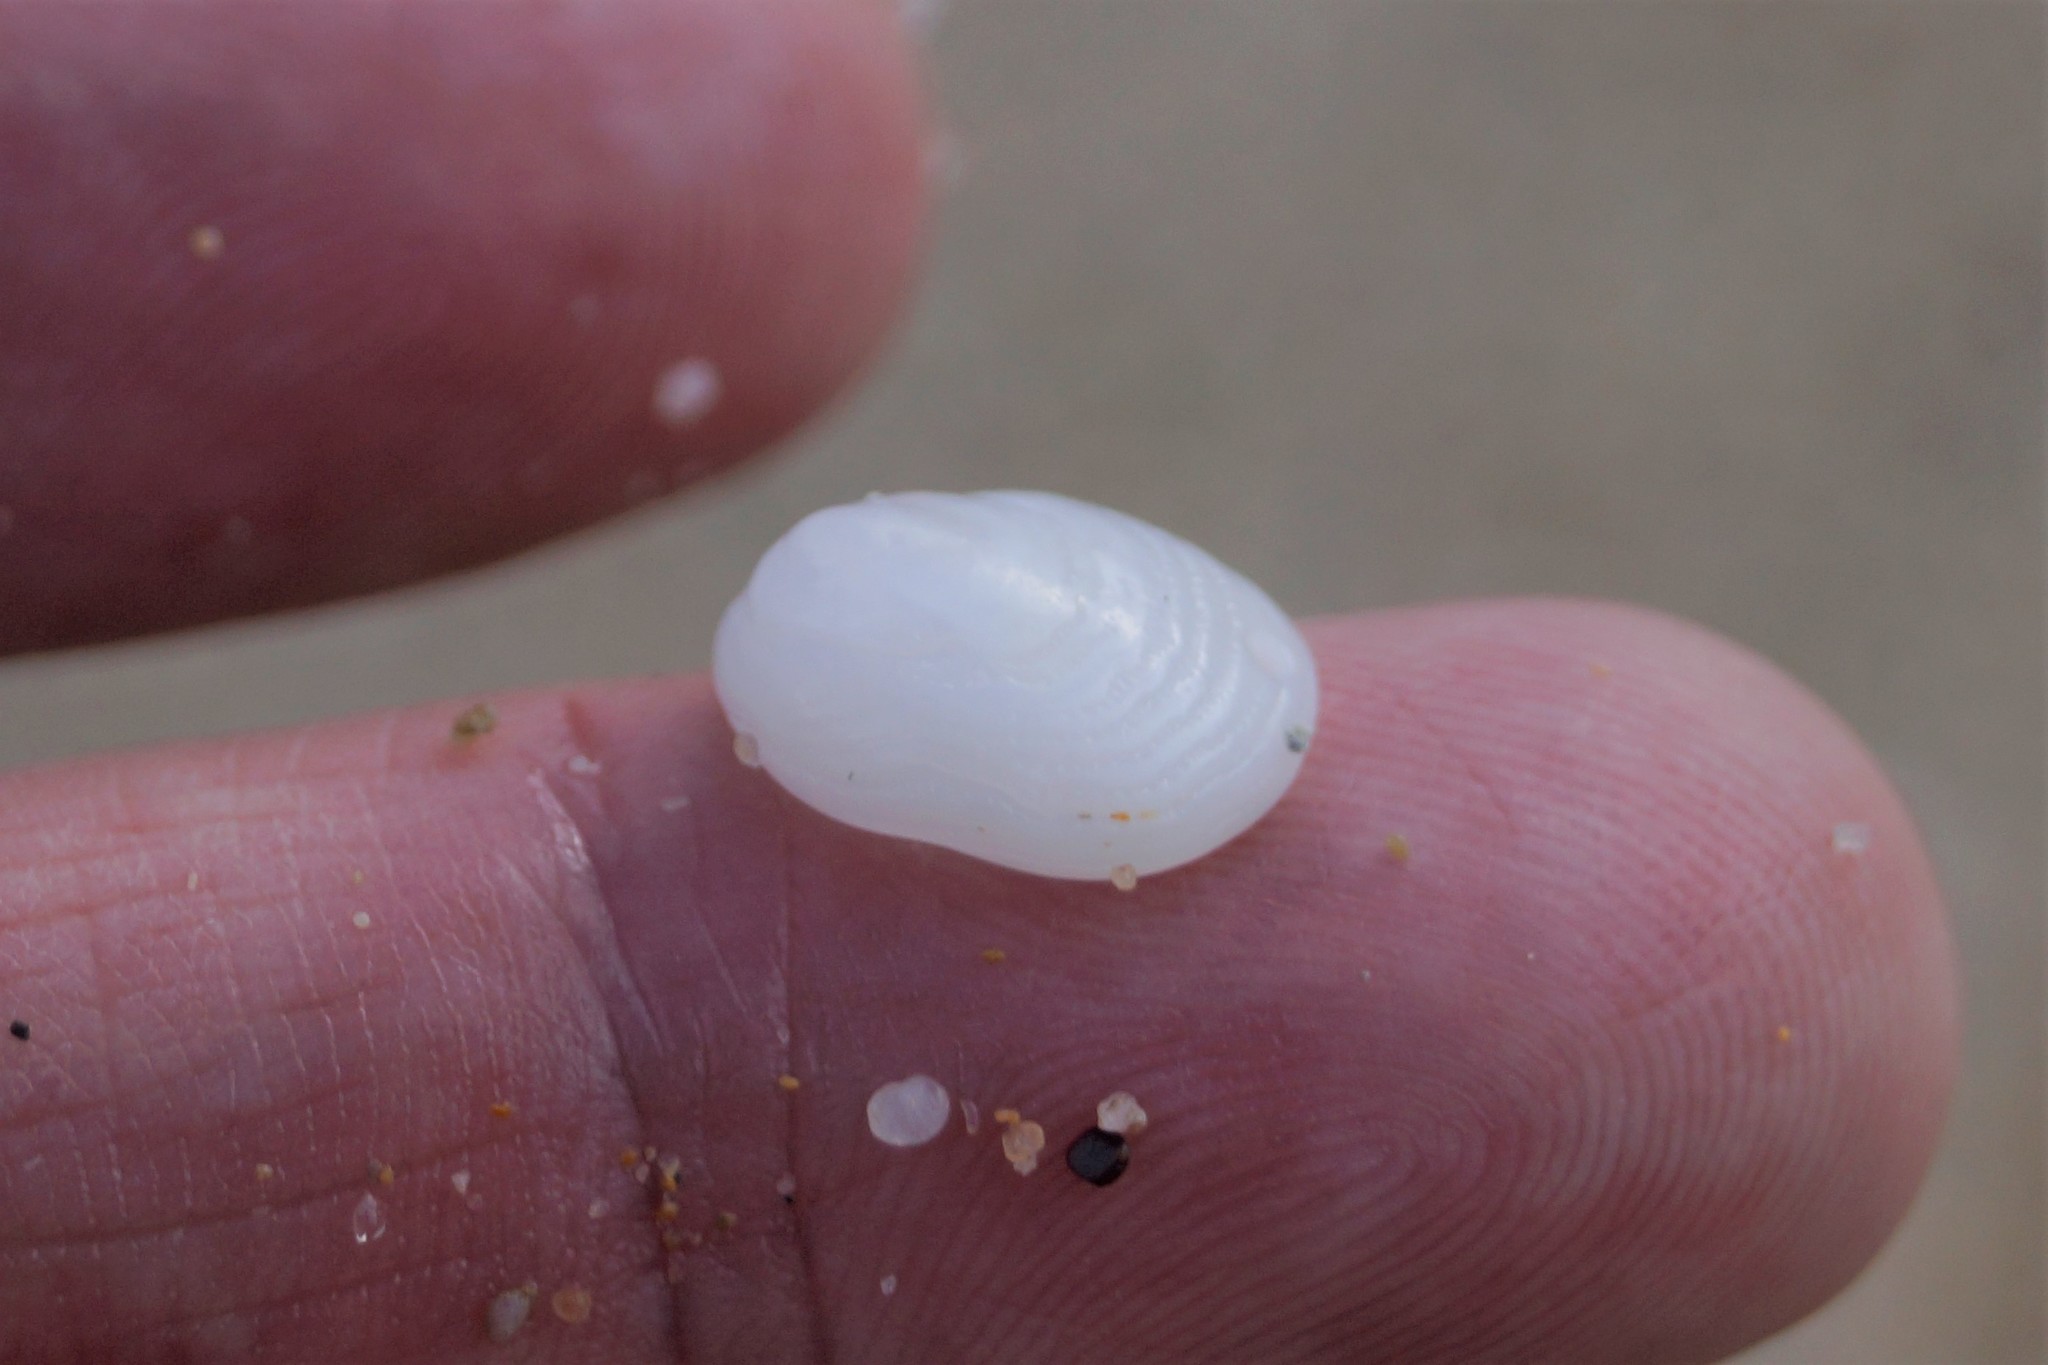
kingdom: Animalia
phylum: Mollusca
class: Gastropoda
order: Littorinimorpha
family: Hipponicidae
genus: Antisabia
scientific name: Antisabia foliacea
